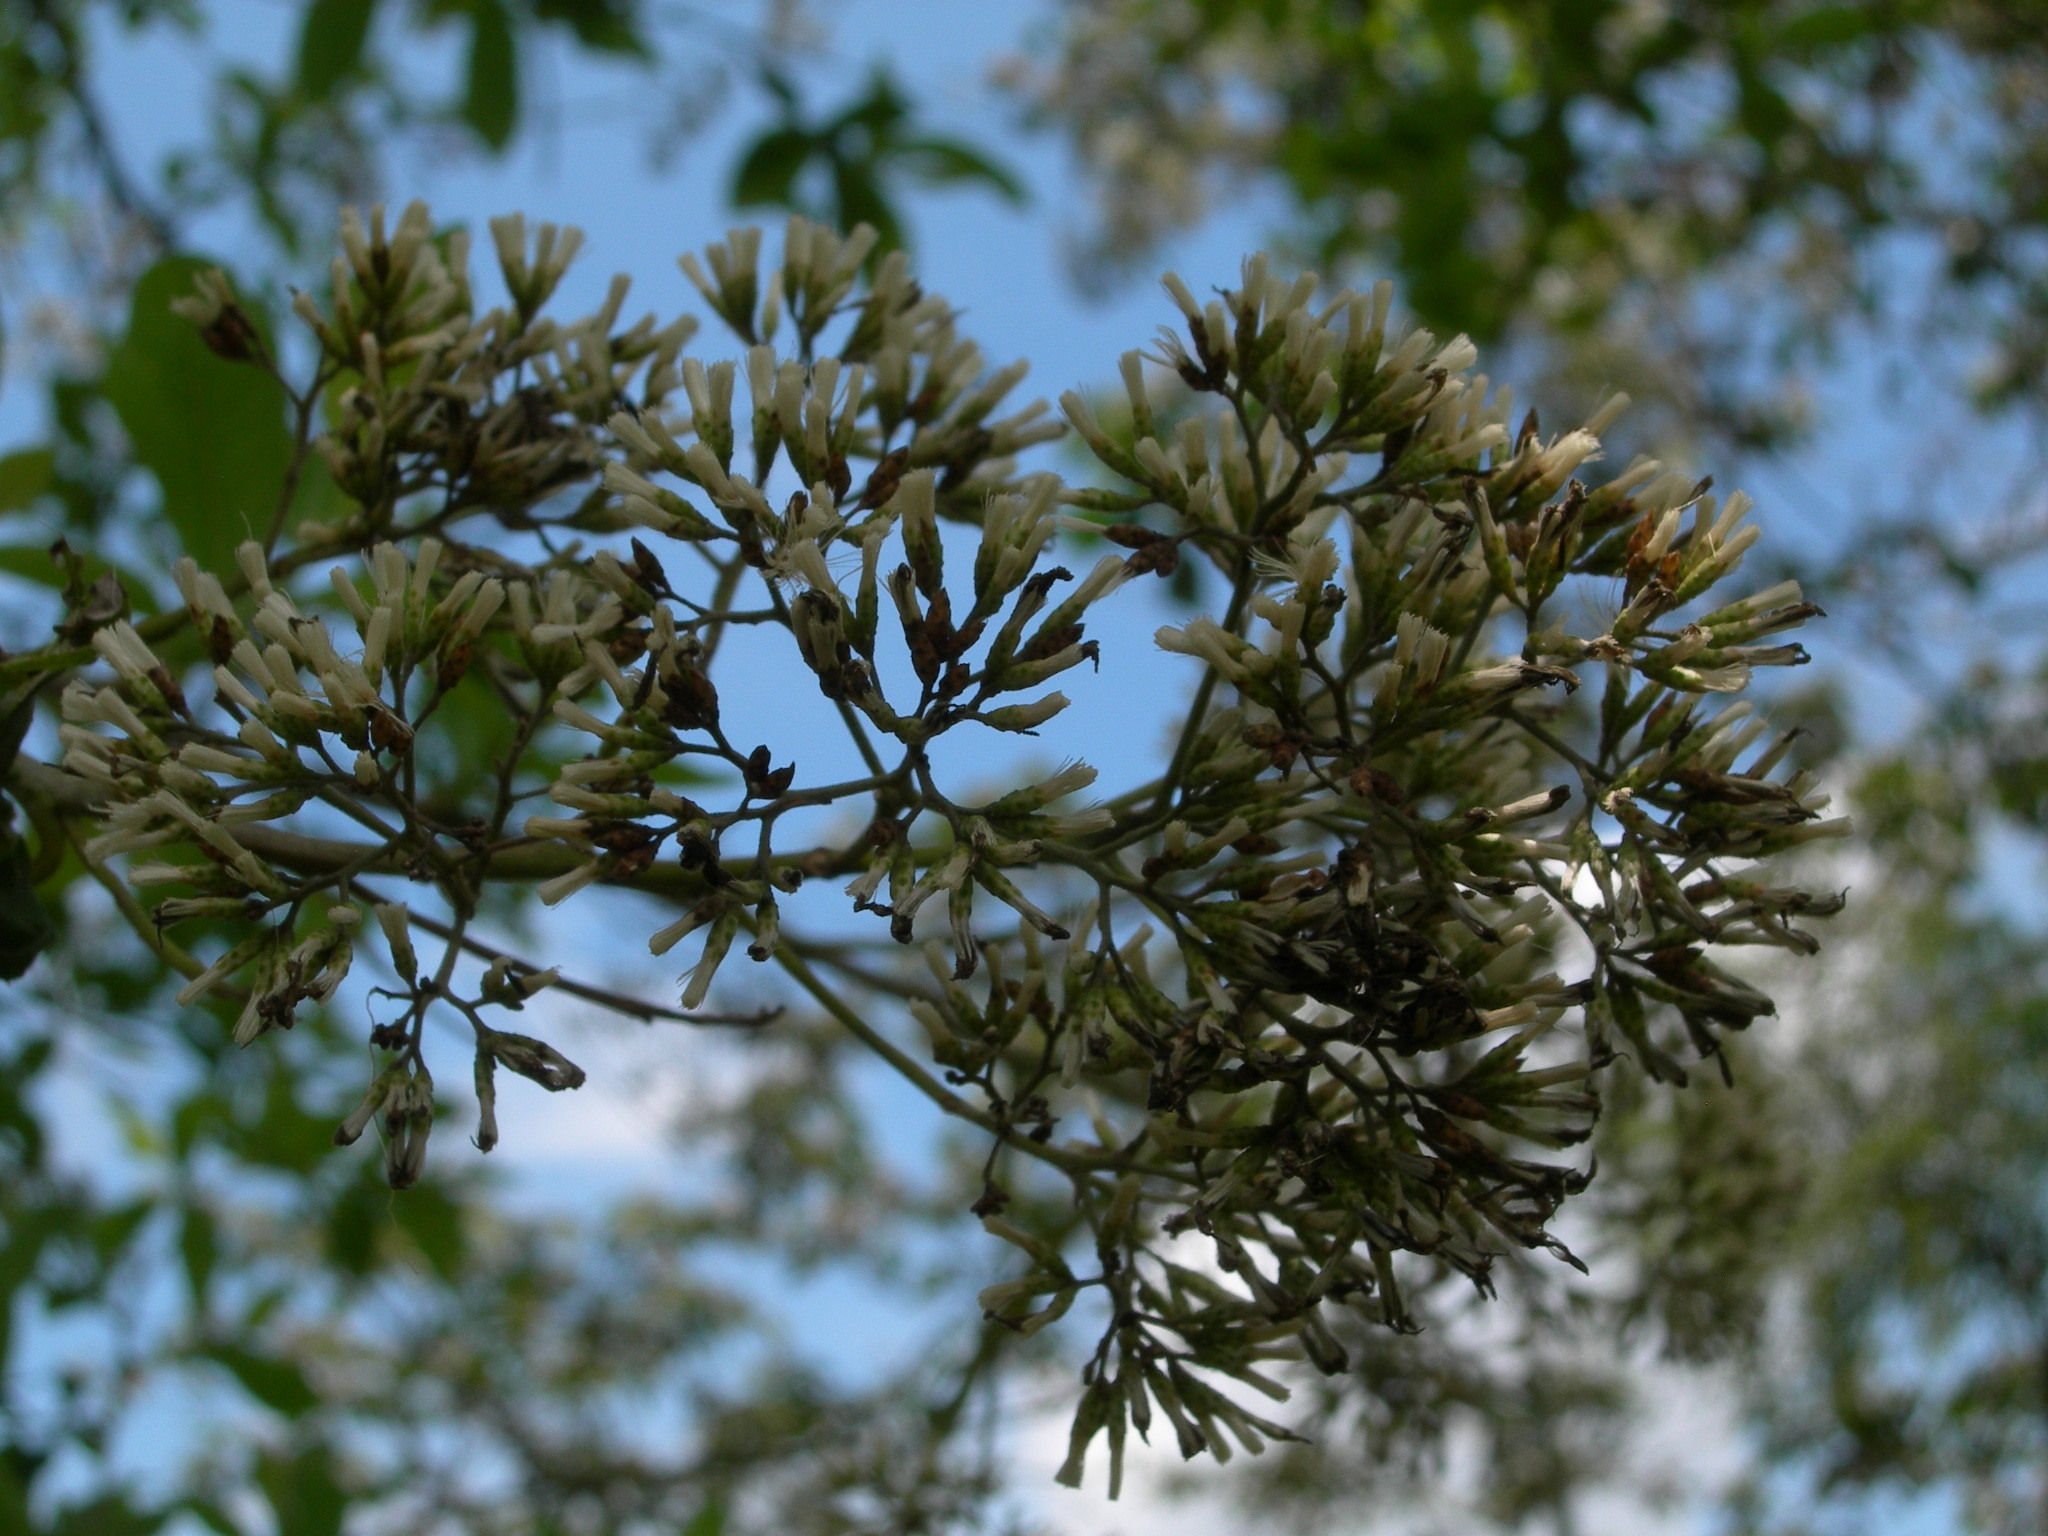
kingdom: Plantae
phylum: Tracheophyta
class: Magnoliopsida
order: Asterales
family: Asteraceae
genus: Critonia
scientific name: Critonia morifolia
